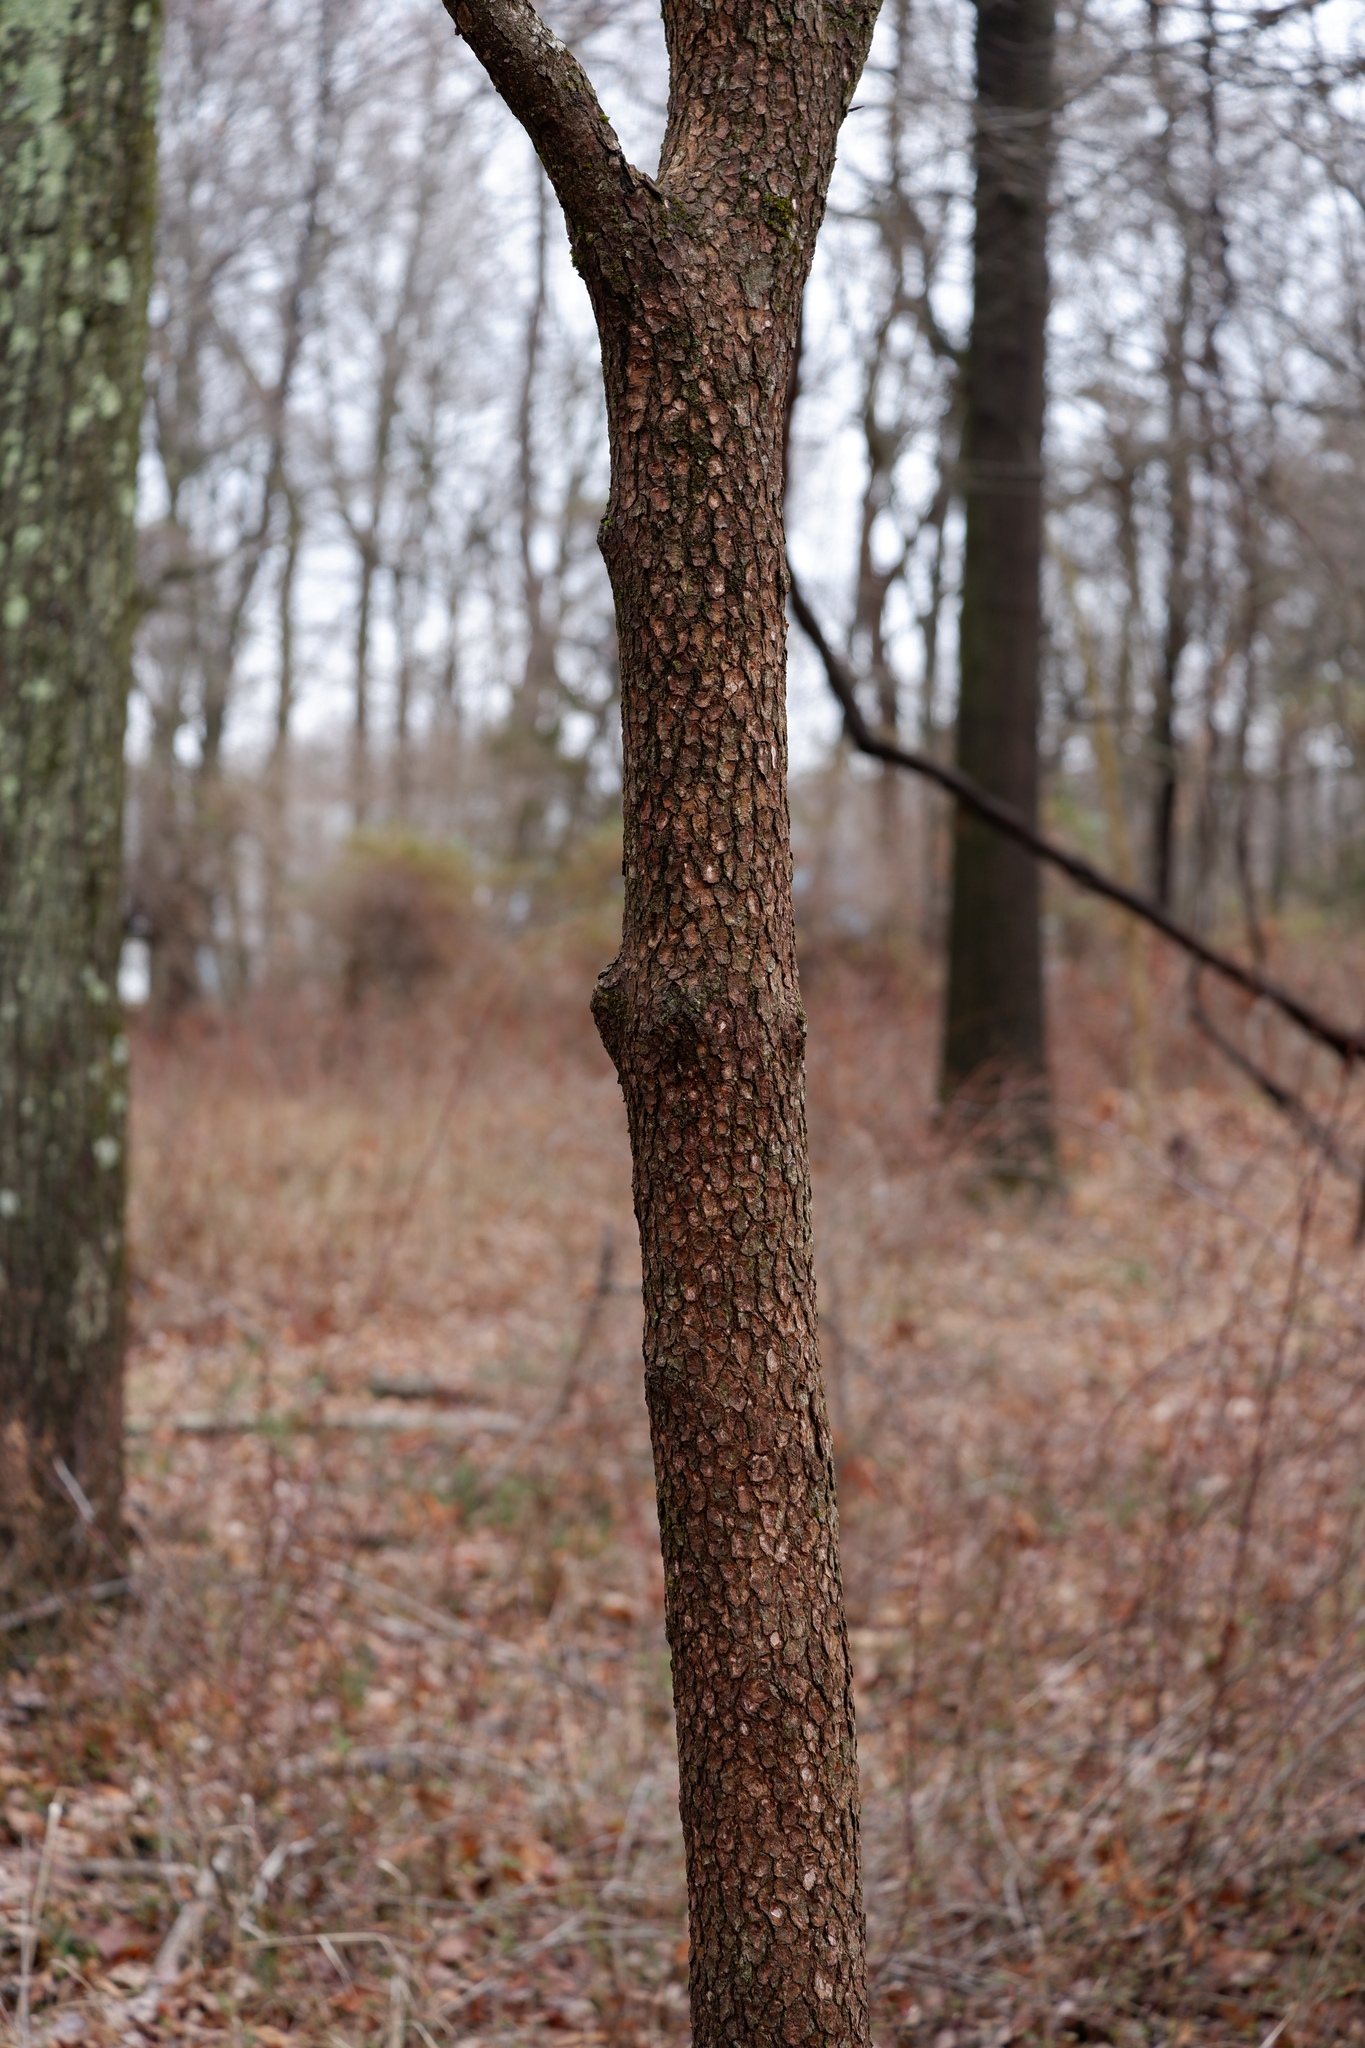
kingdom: Plantae
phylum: Tracheophyta
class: Magnoliopsida
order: Cornales
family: Cornaceae
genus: Cornus
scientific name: Cornus florida
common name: Flowering dogwood
